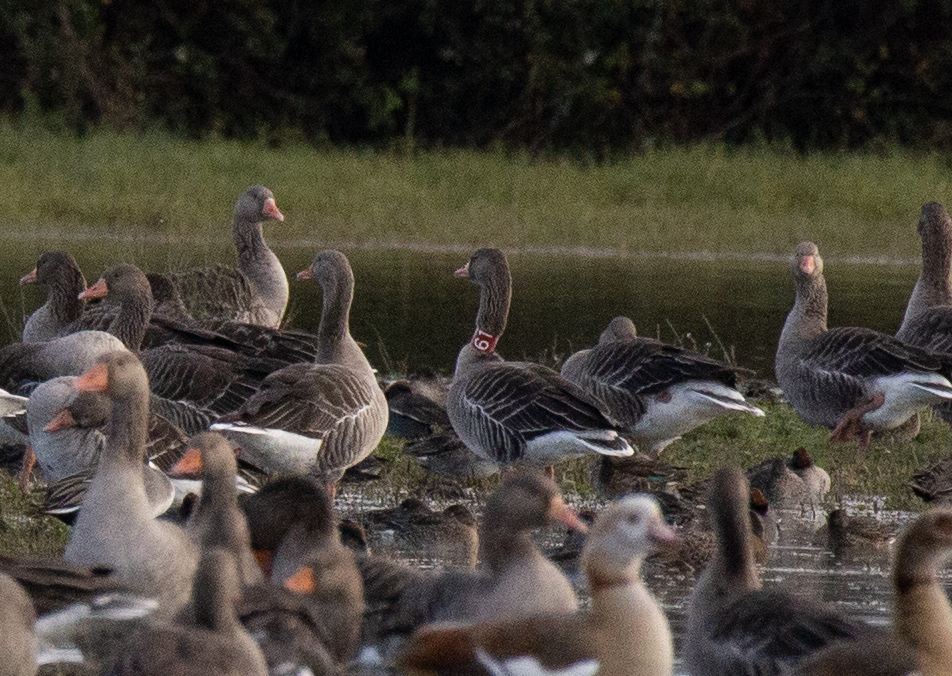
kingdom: Animalia
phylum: Chordata
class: Aves
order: Anseriformes
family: Anatidae
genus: Anser
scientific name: Anser anser
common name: Greylag goose
